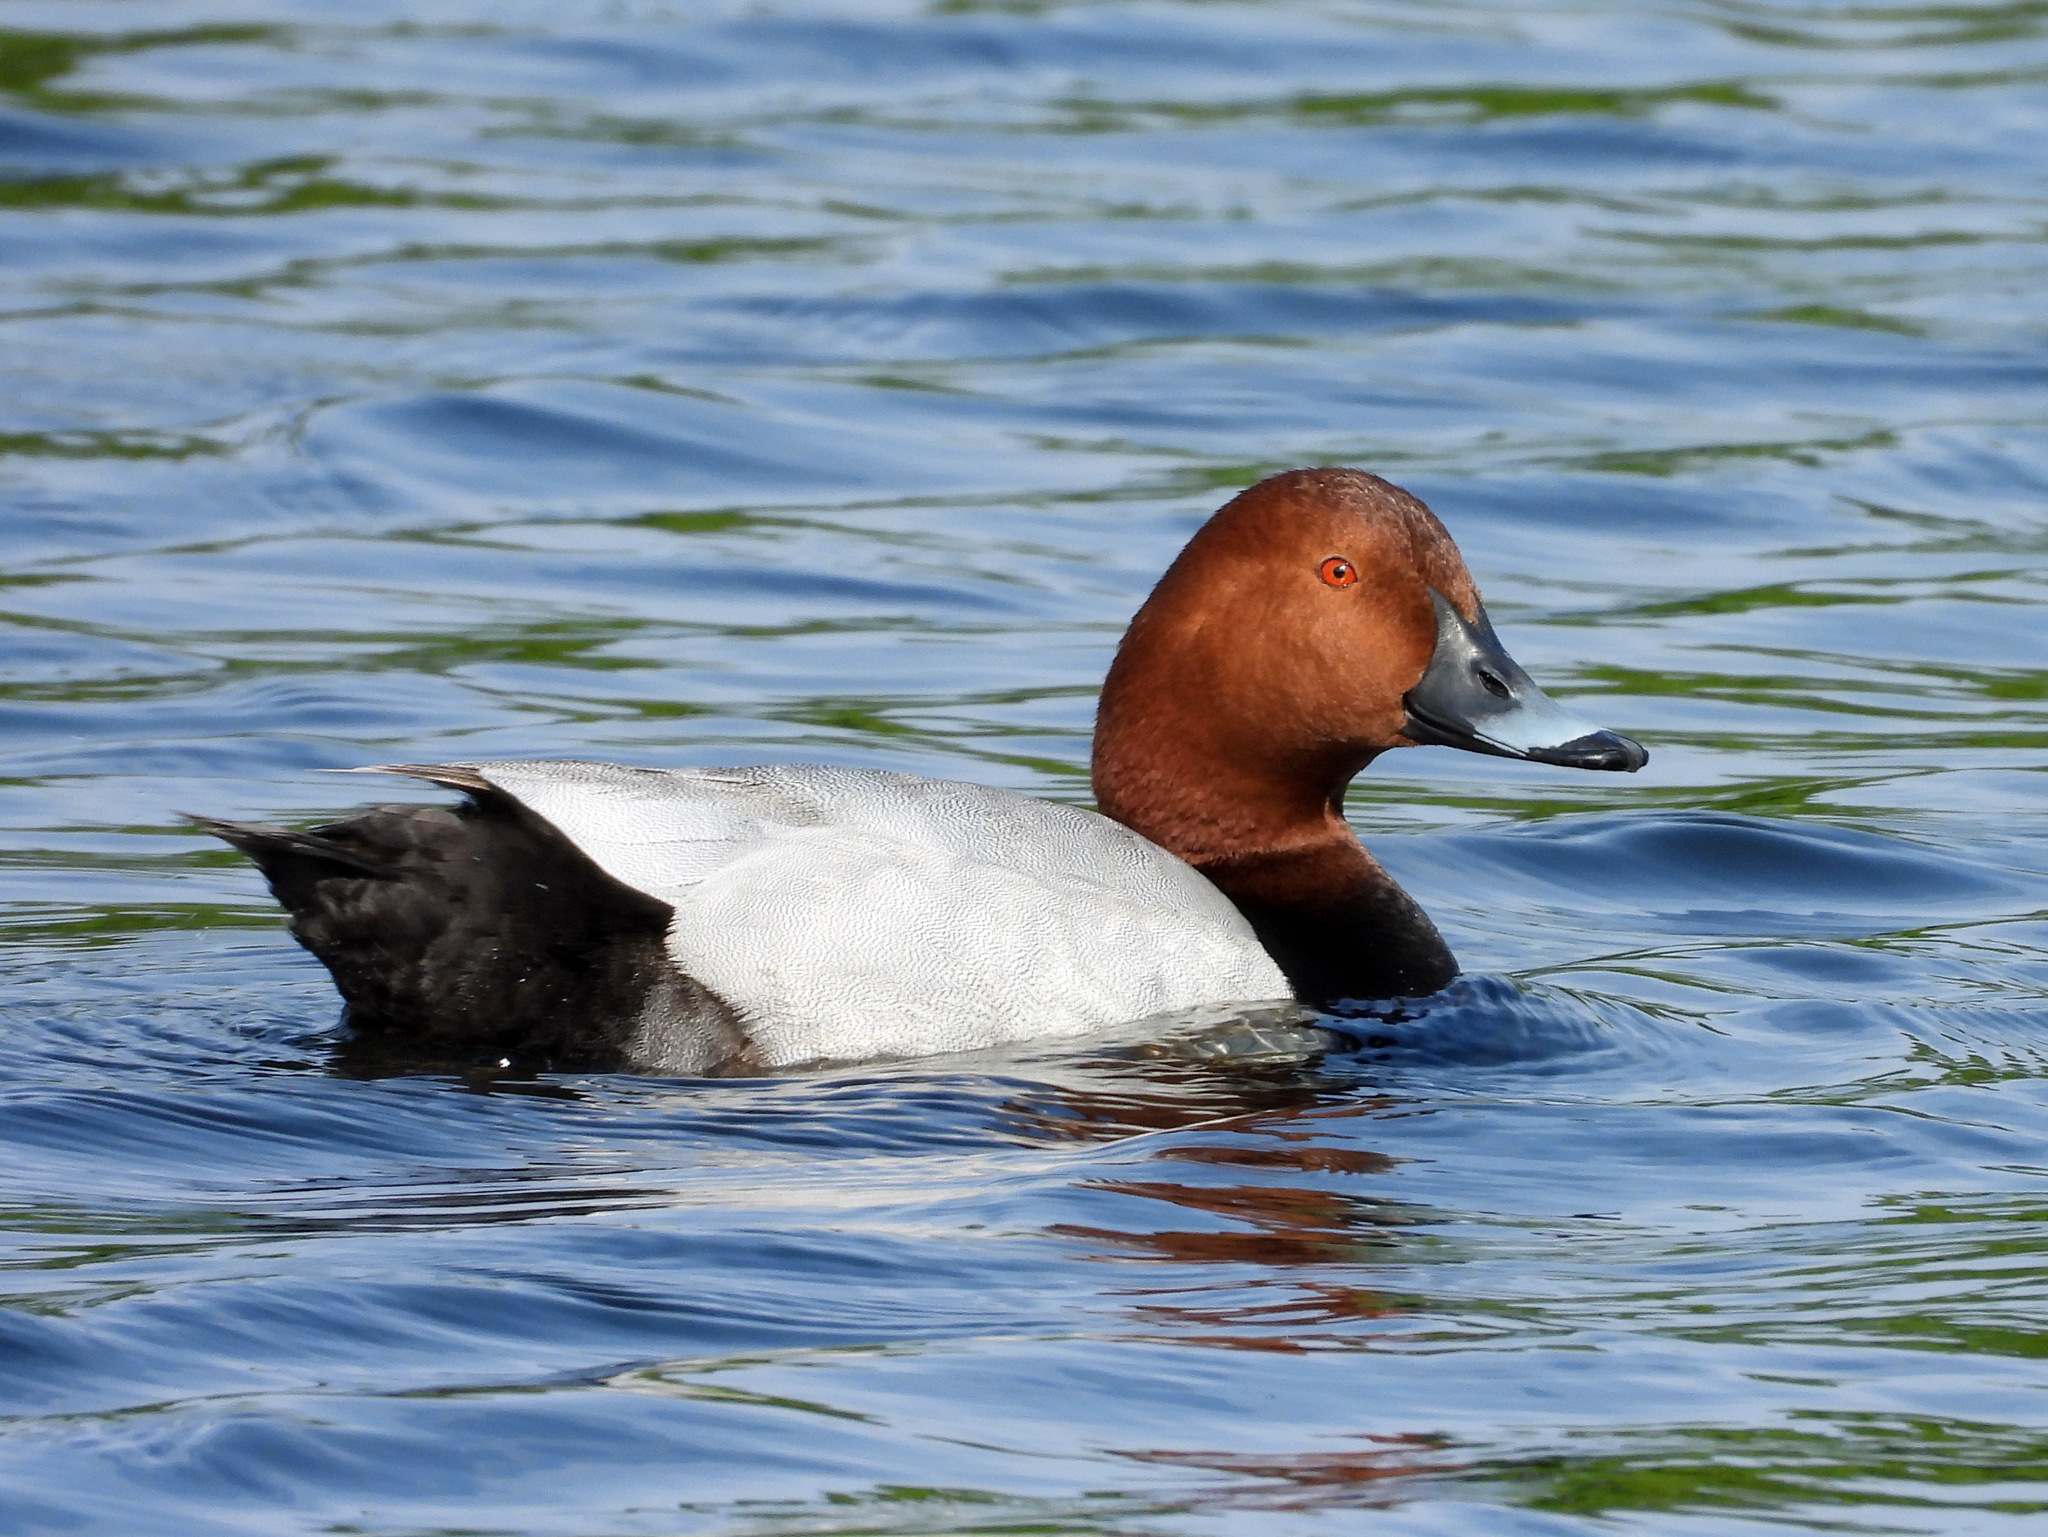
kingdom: Animalia
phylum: Chordata
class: Aves
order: Anseriformes
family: Anatidae
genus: Aythya
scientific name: Aythya ferina
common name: Common pochard
